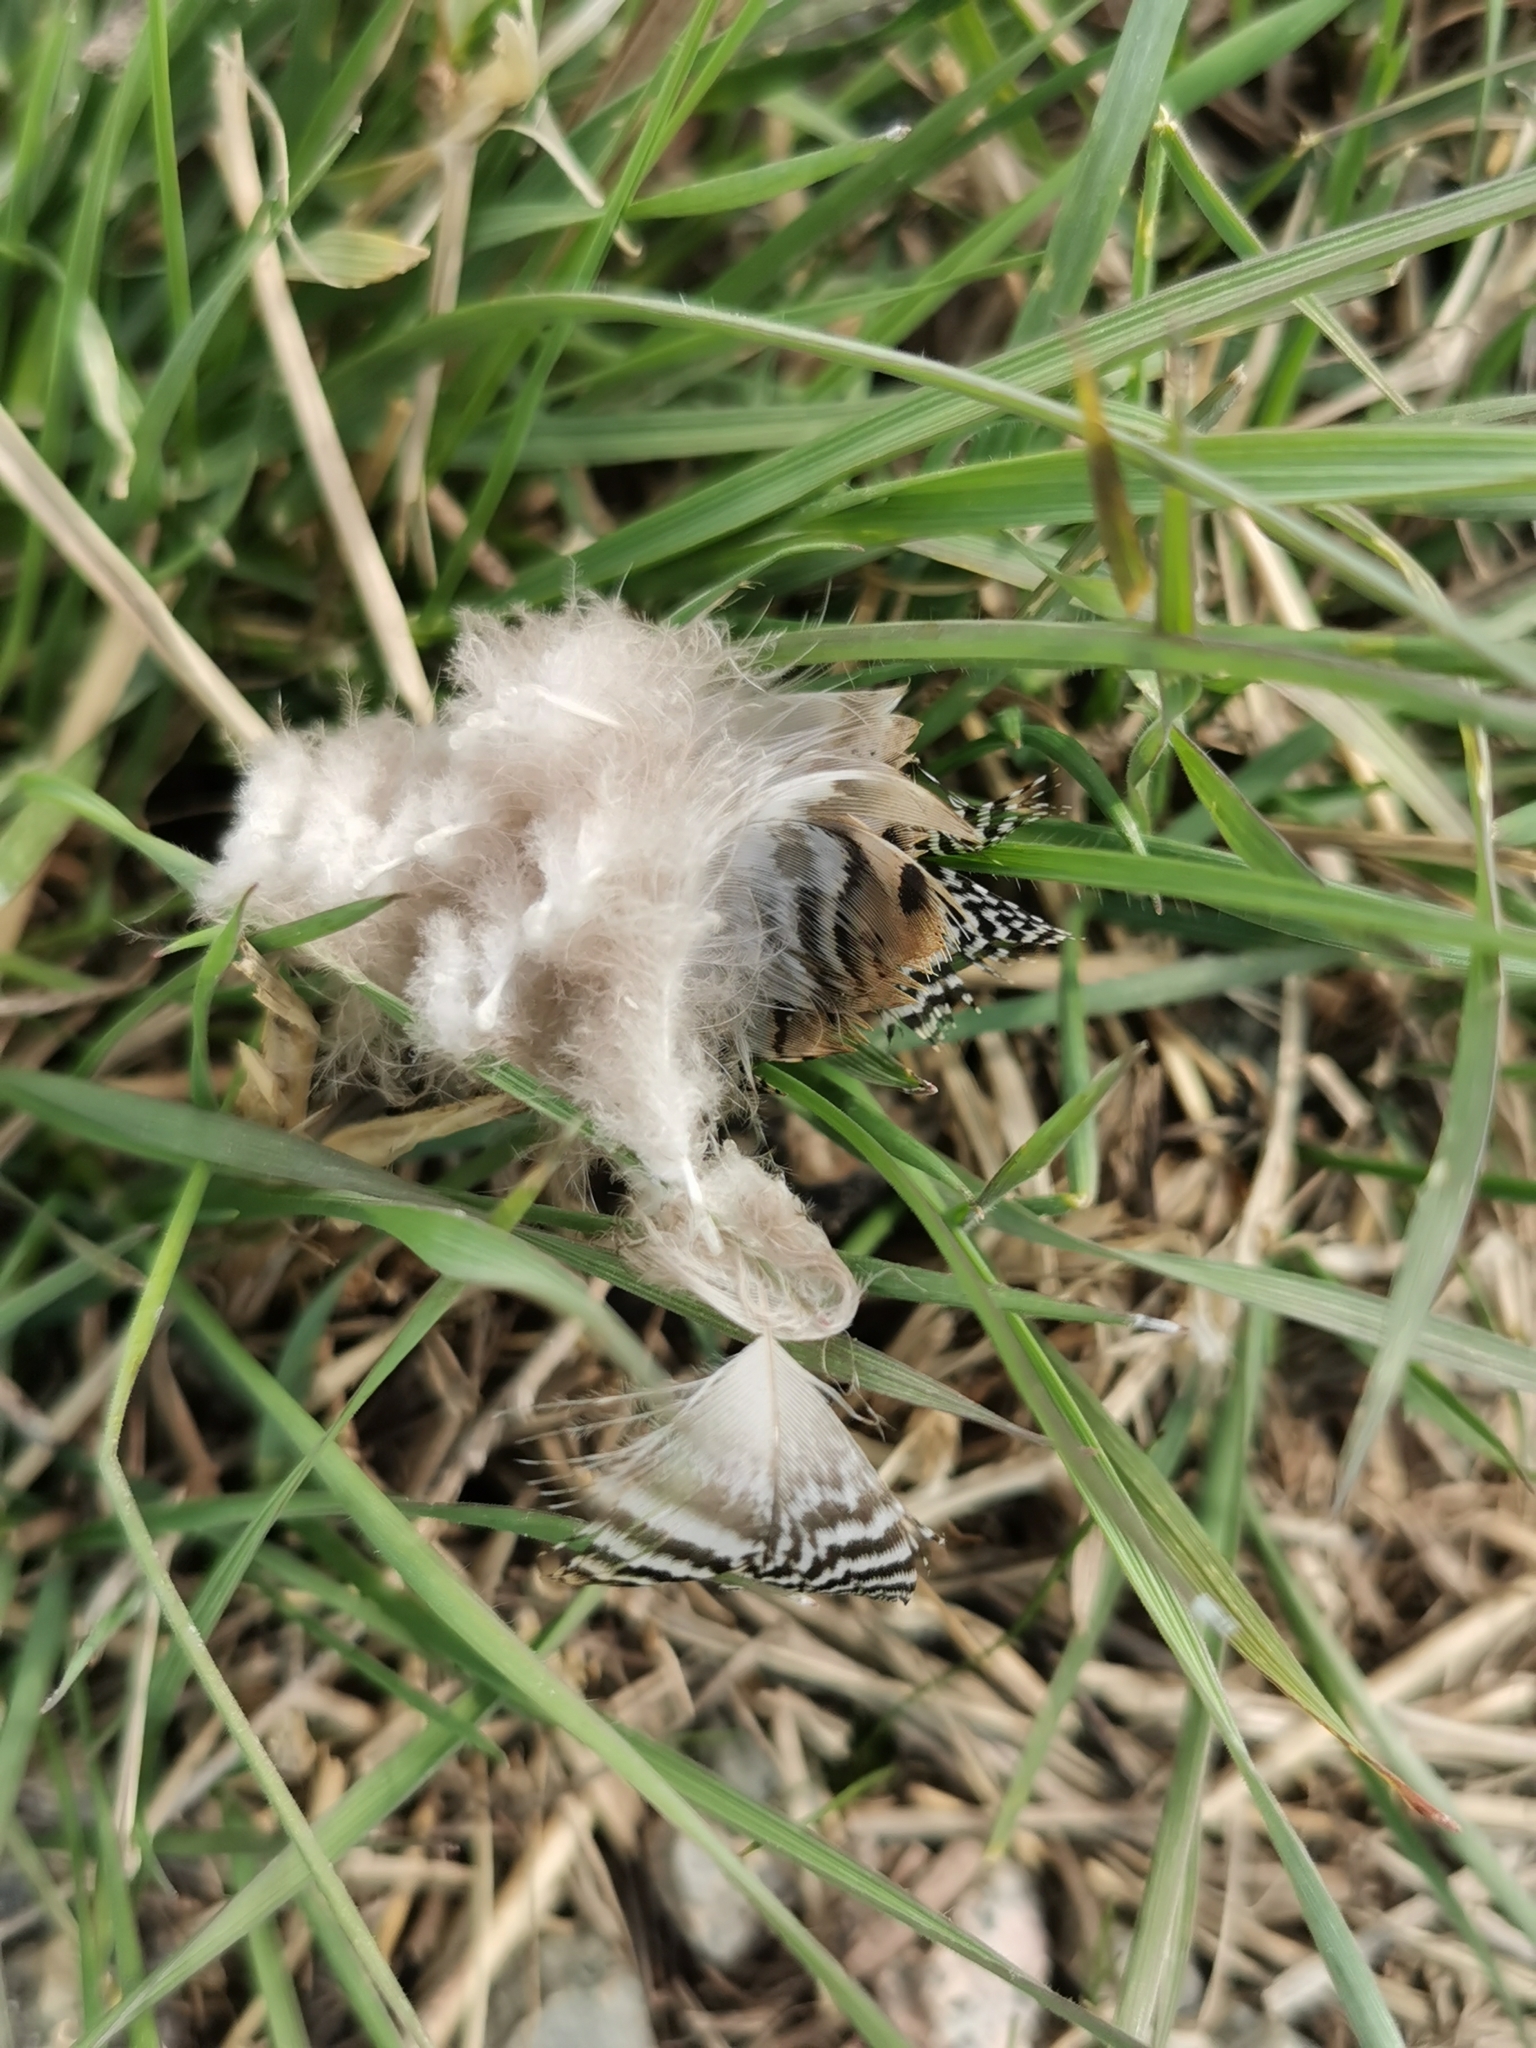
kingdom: Animalia
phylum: Chordata
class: Aves
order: Anseriformes
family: Anatidae
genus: Anas
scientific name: Anas crecca
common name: Eurasian teal
